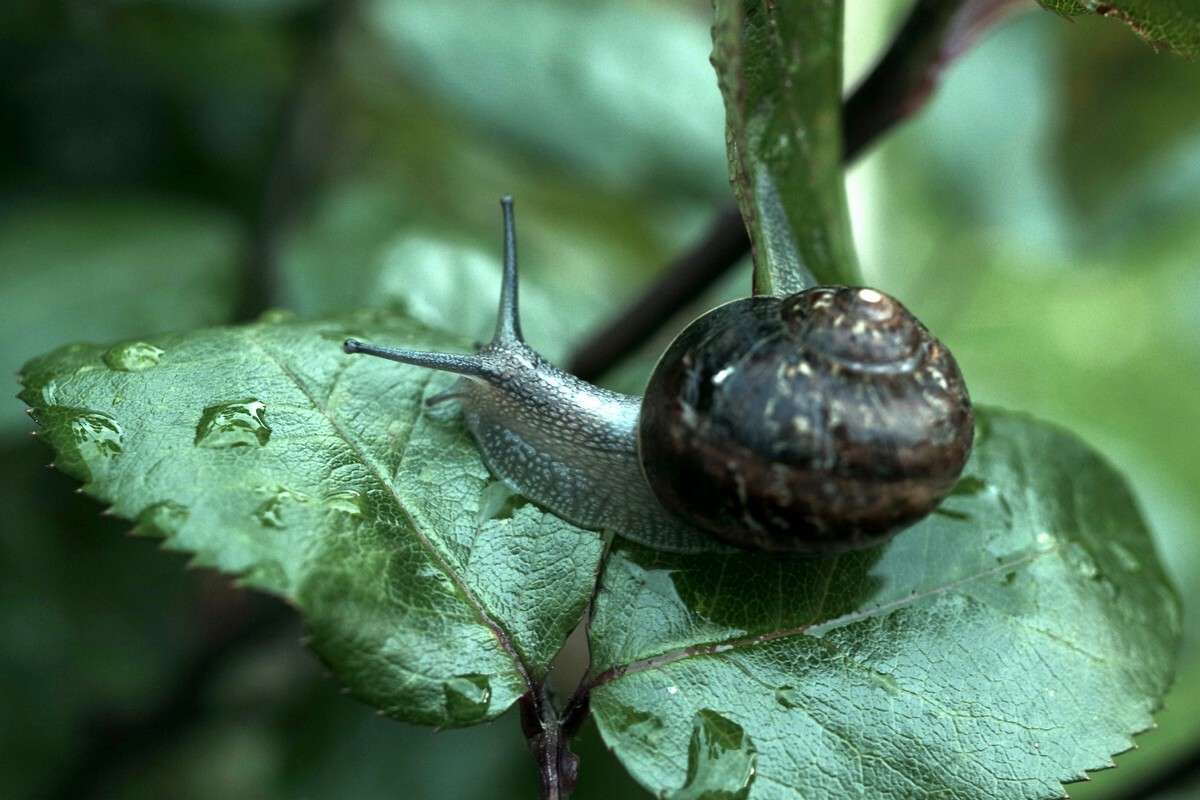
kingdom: Animalia
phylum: Mollusca
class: Gastropoda
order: Stylommatophora
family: Helicidae
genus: Cornu
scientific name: Cornu aspersum
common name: Brown garden snail
